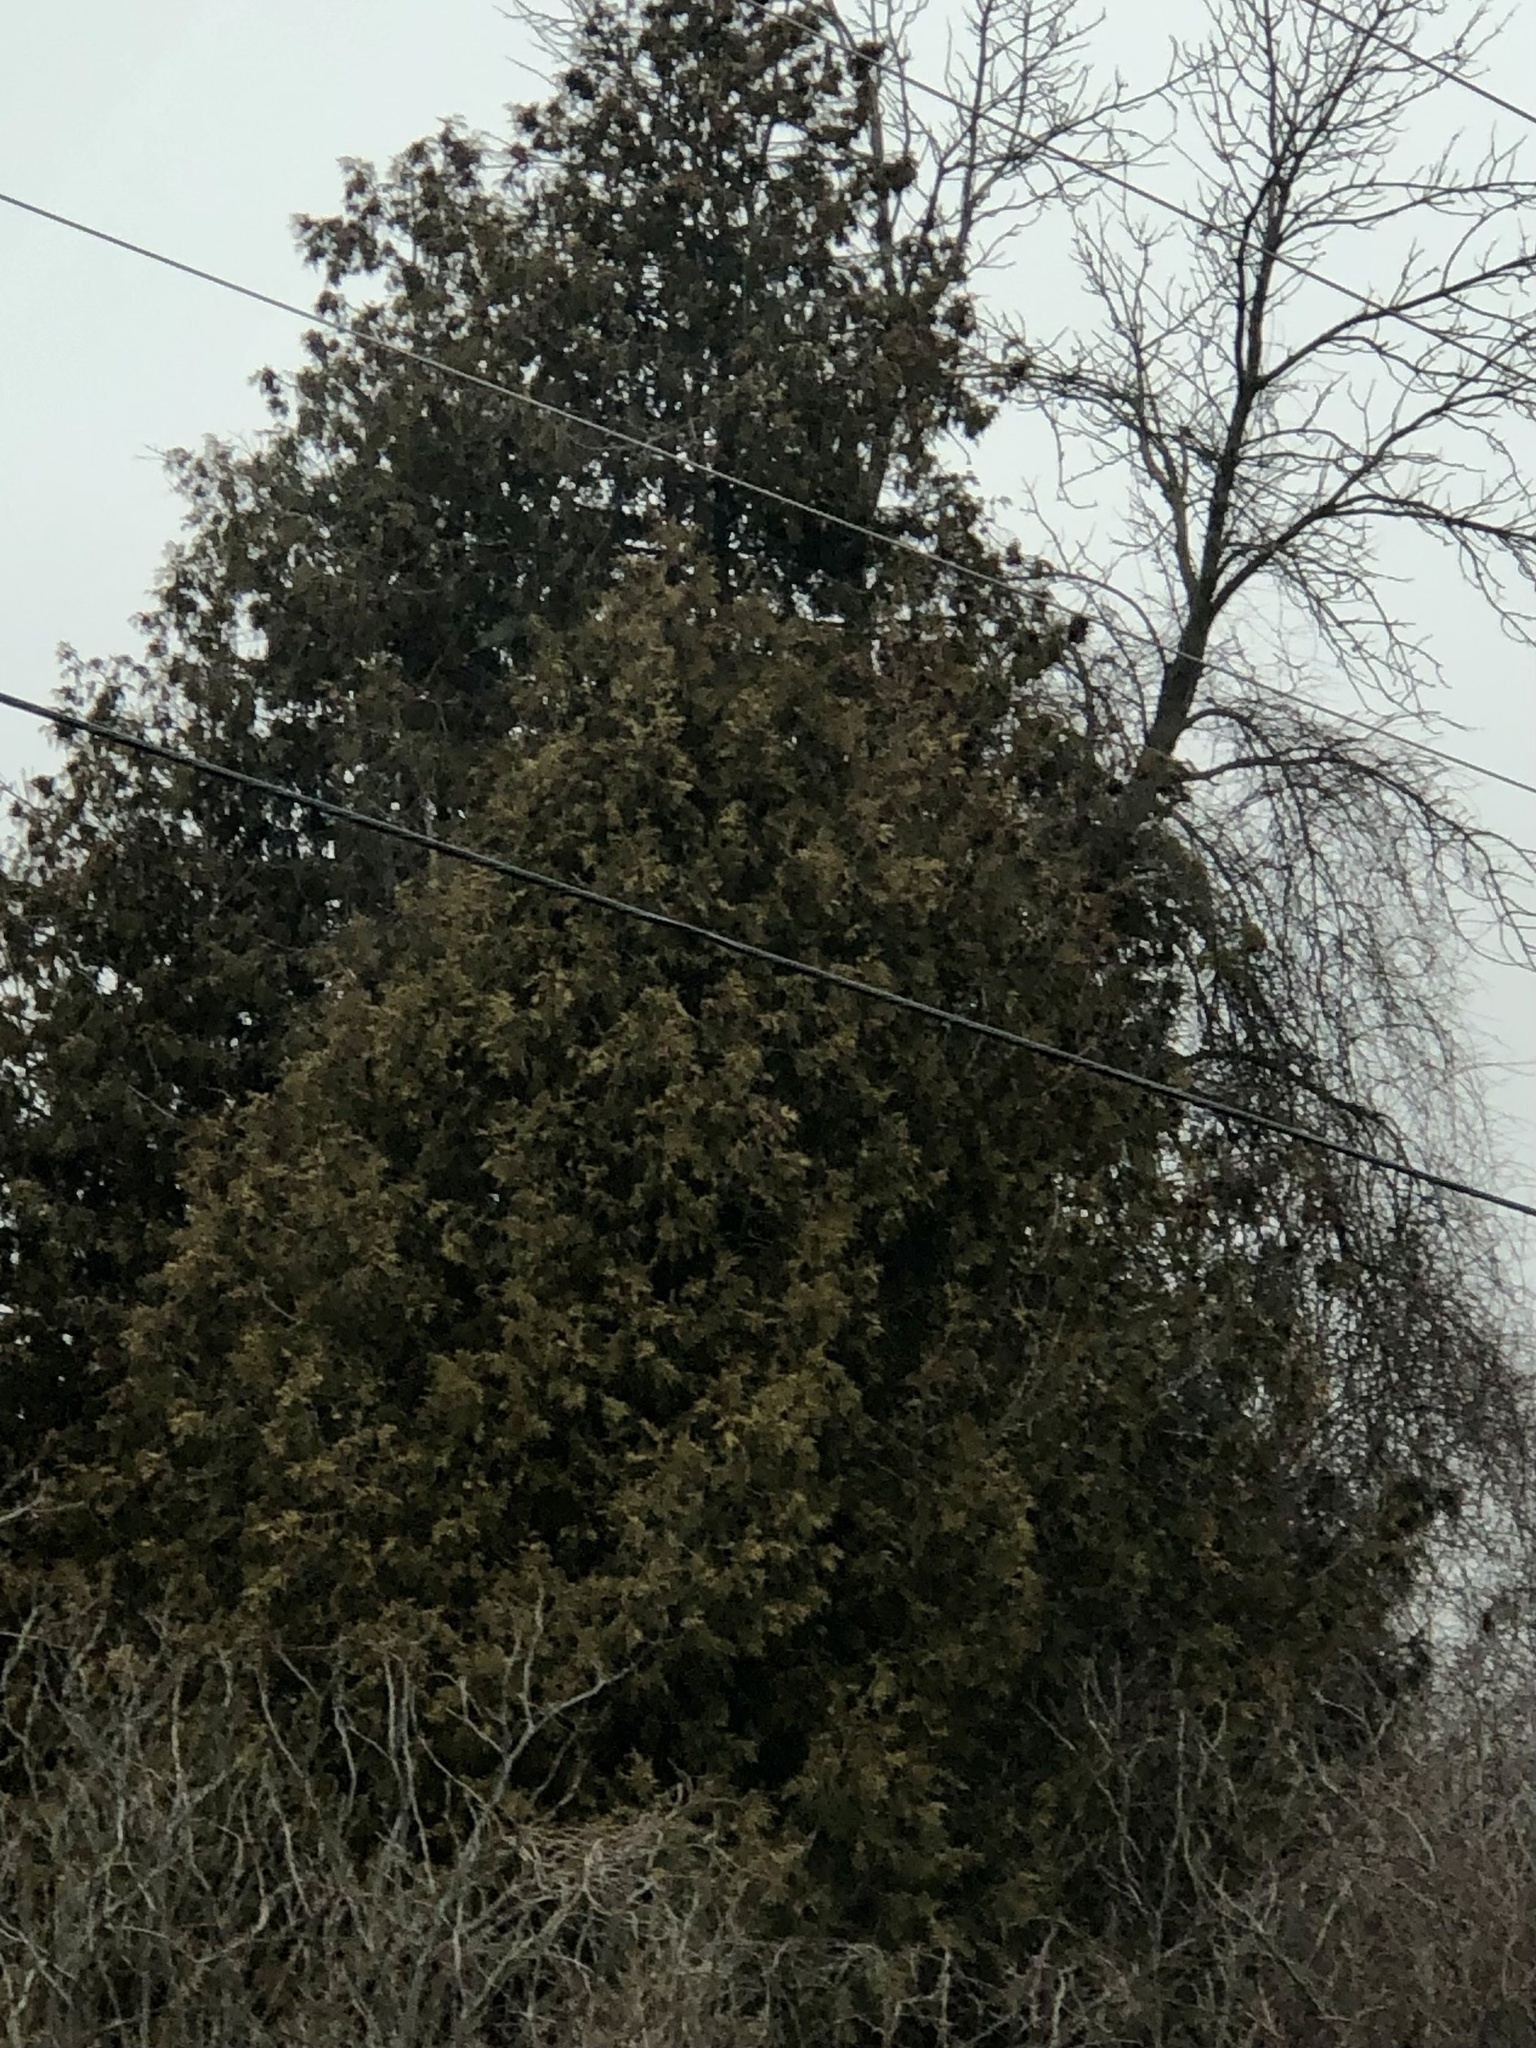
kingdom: Plantae
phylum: Tracheophyta
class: Pinopsida
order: Pinales
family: Cupressaceae
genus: Thuja
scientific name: Thuja occidentalis
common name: Northern white-cedar
